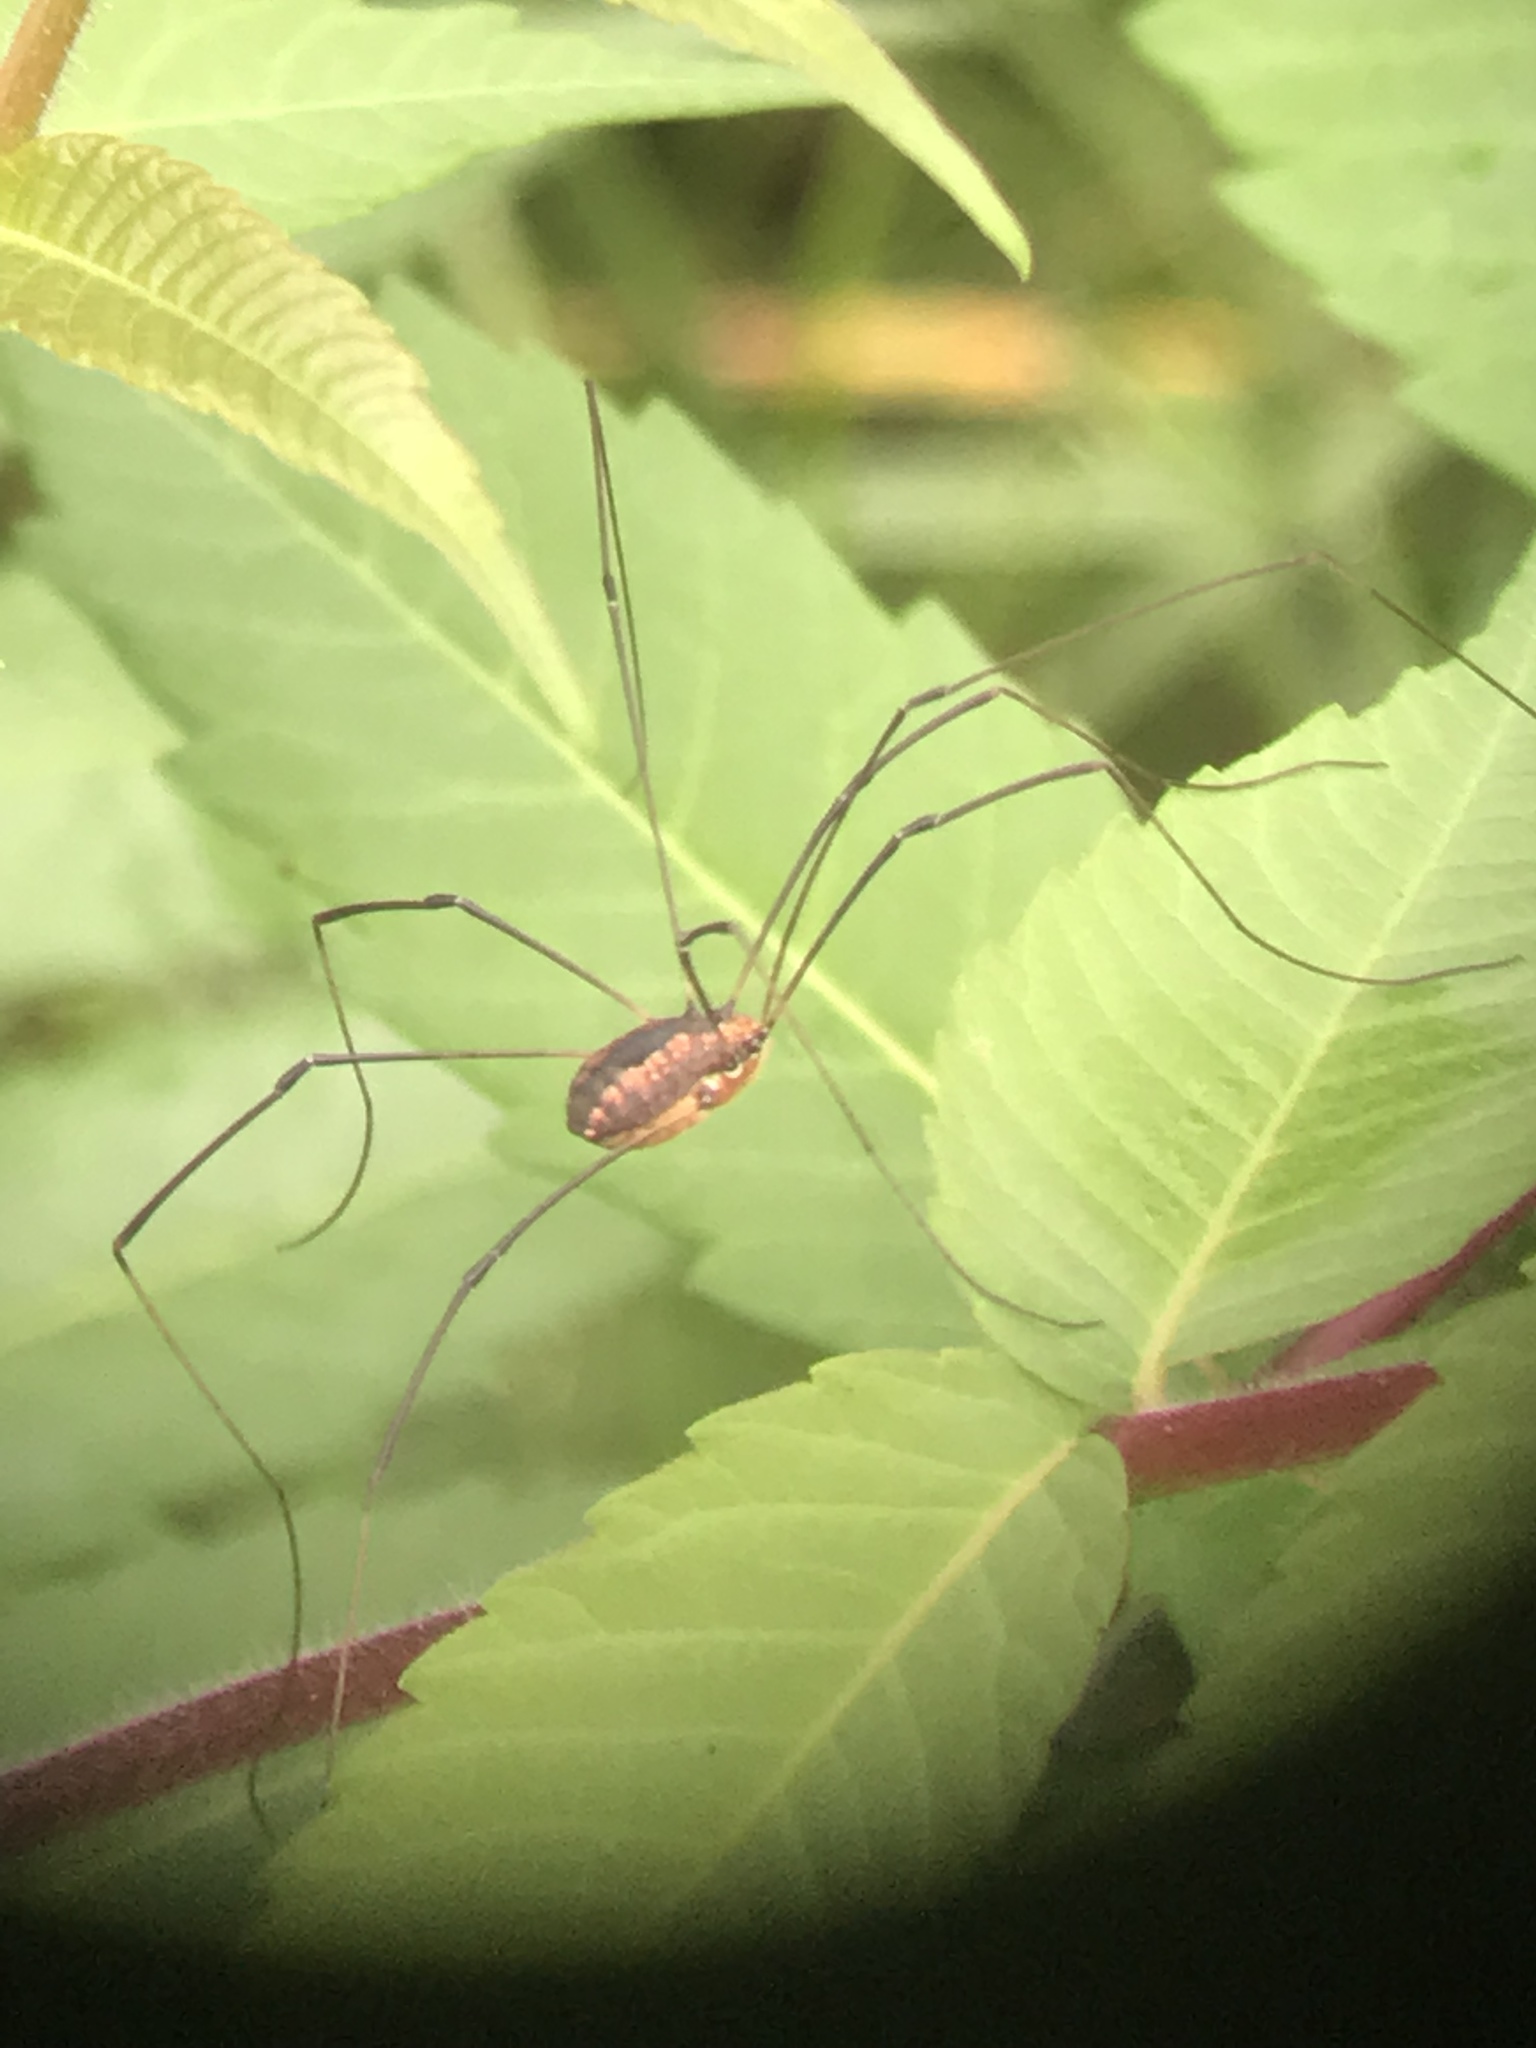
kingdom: Animalia
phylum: Arthropoda
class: Arachnida
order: Opiliones
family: Sclerosomatidae
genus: Leiobunum
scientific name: Leiobunum vittatum
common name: Eastern harvestman
